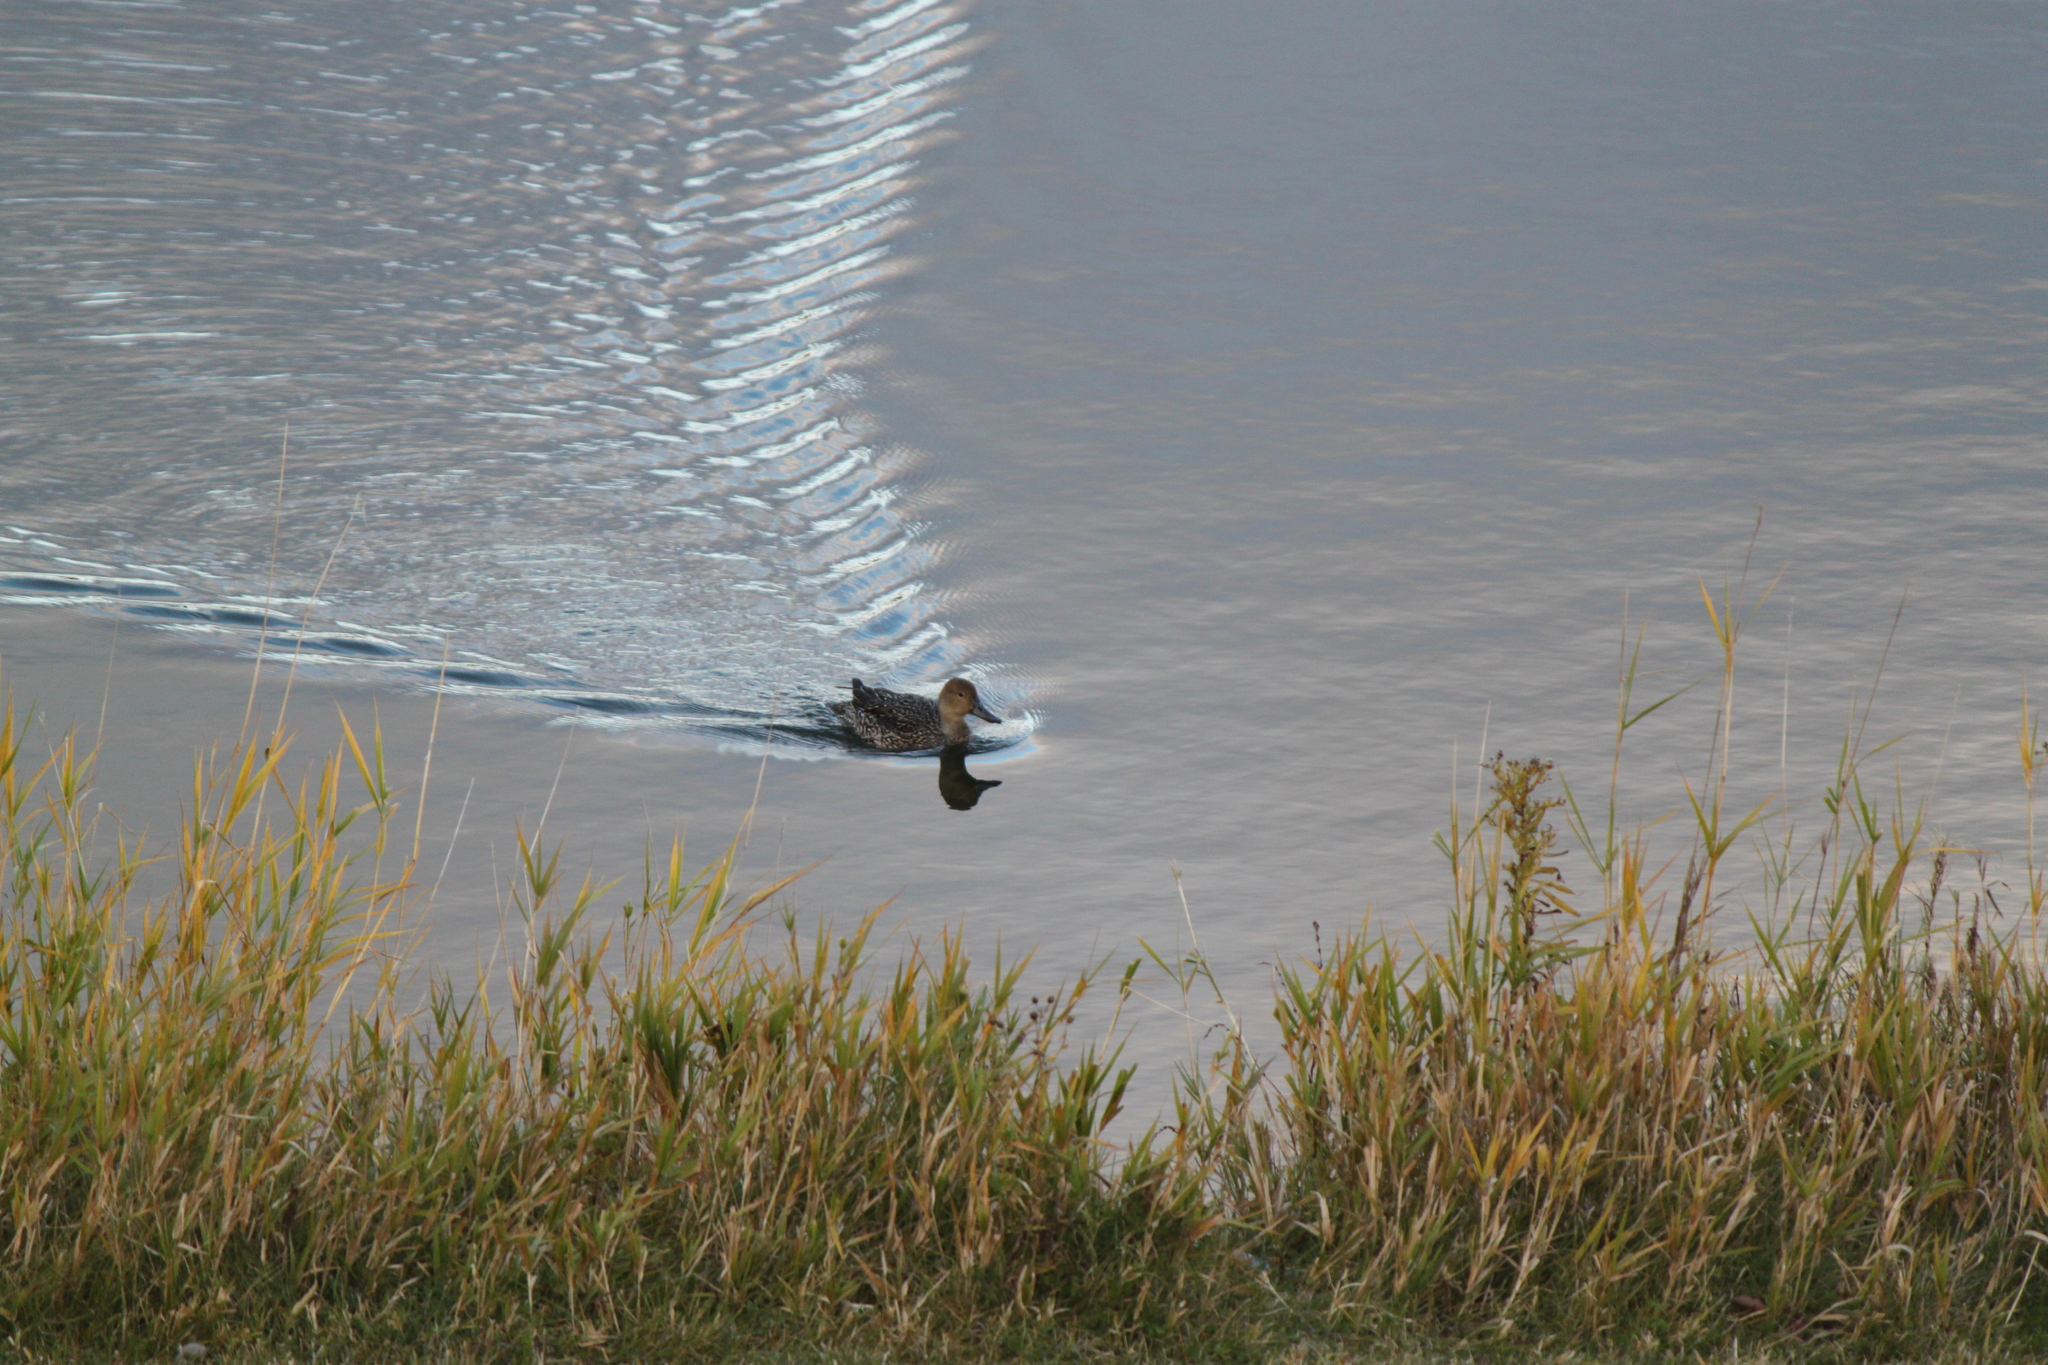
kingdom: Animalia
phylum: Chordata
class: Aves
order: Anseriformes
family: Anatidae
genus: Anas
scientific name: Anas acuta
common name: Northern pintail
